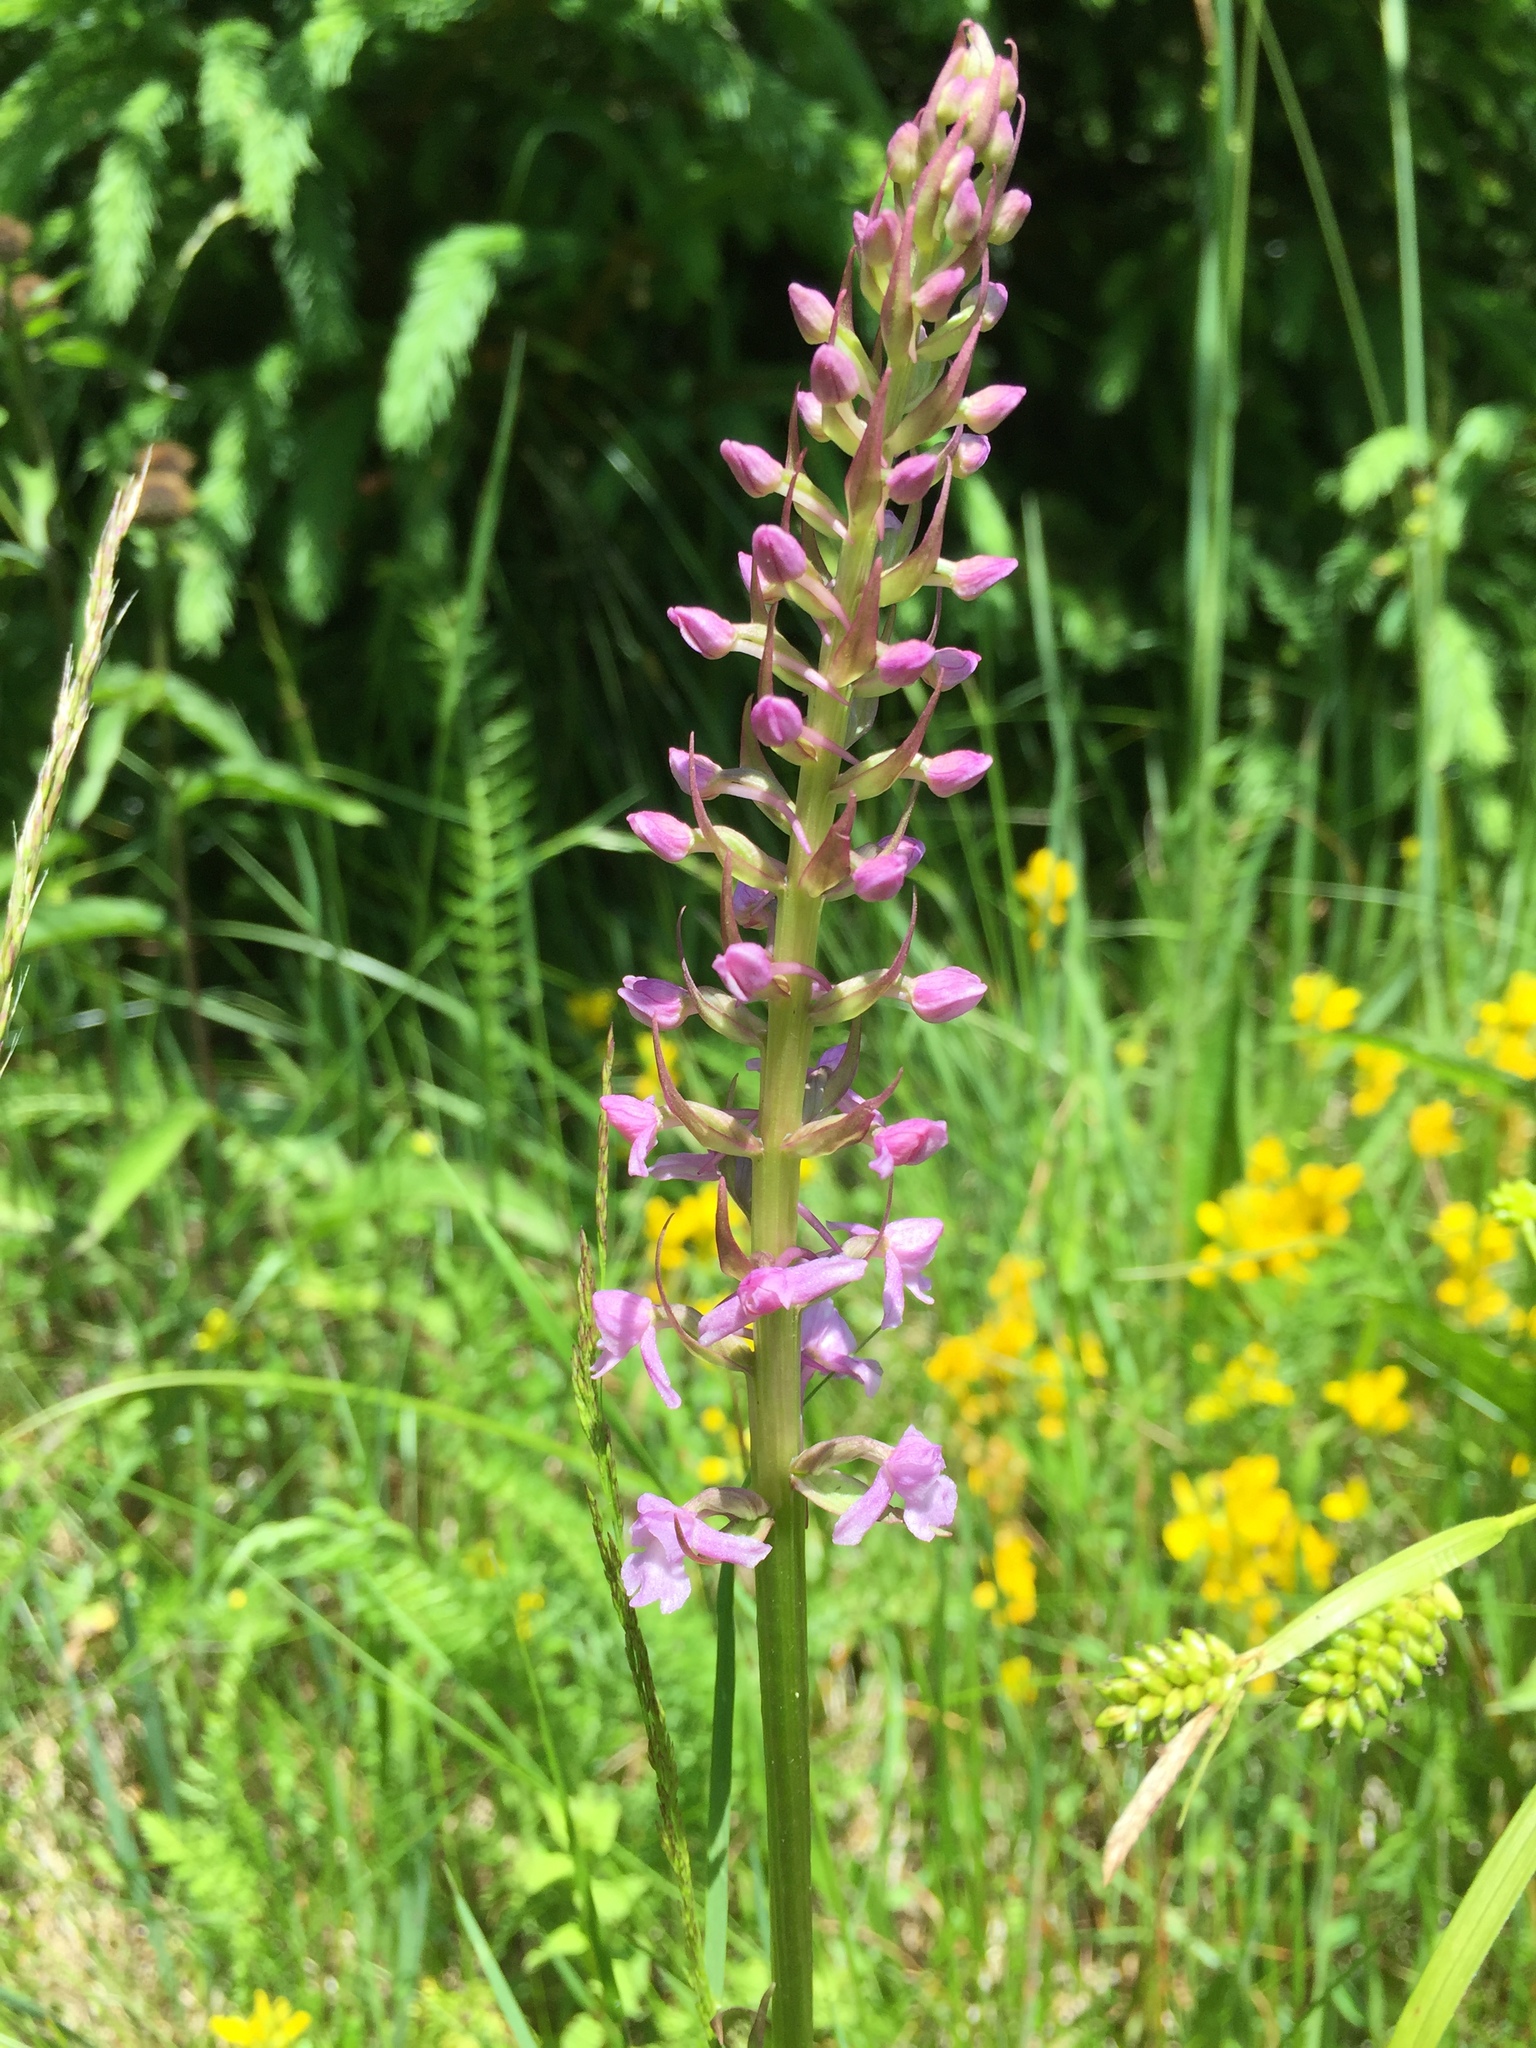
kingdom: Plantae
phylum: Tracheophyta
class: Liliopsida
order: Asparagales
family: Orchidaceae
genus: Gymnadenia
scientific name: Gymnadenia conopsea
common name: Fragrant orchid
